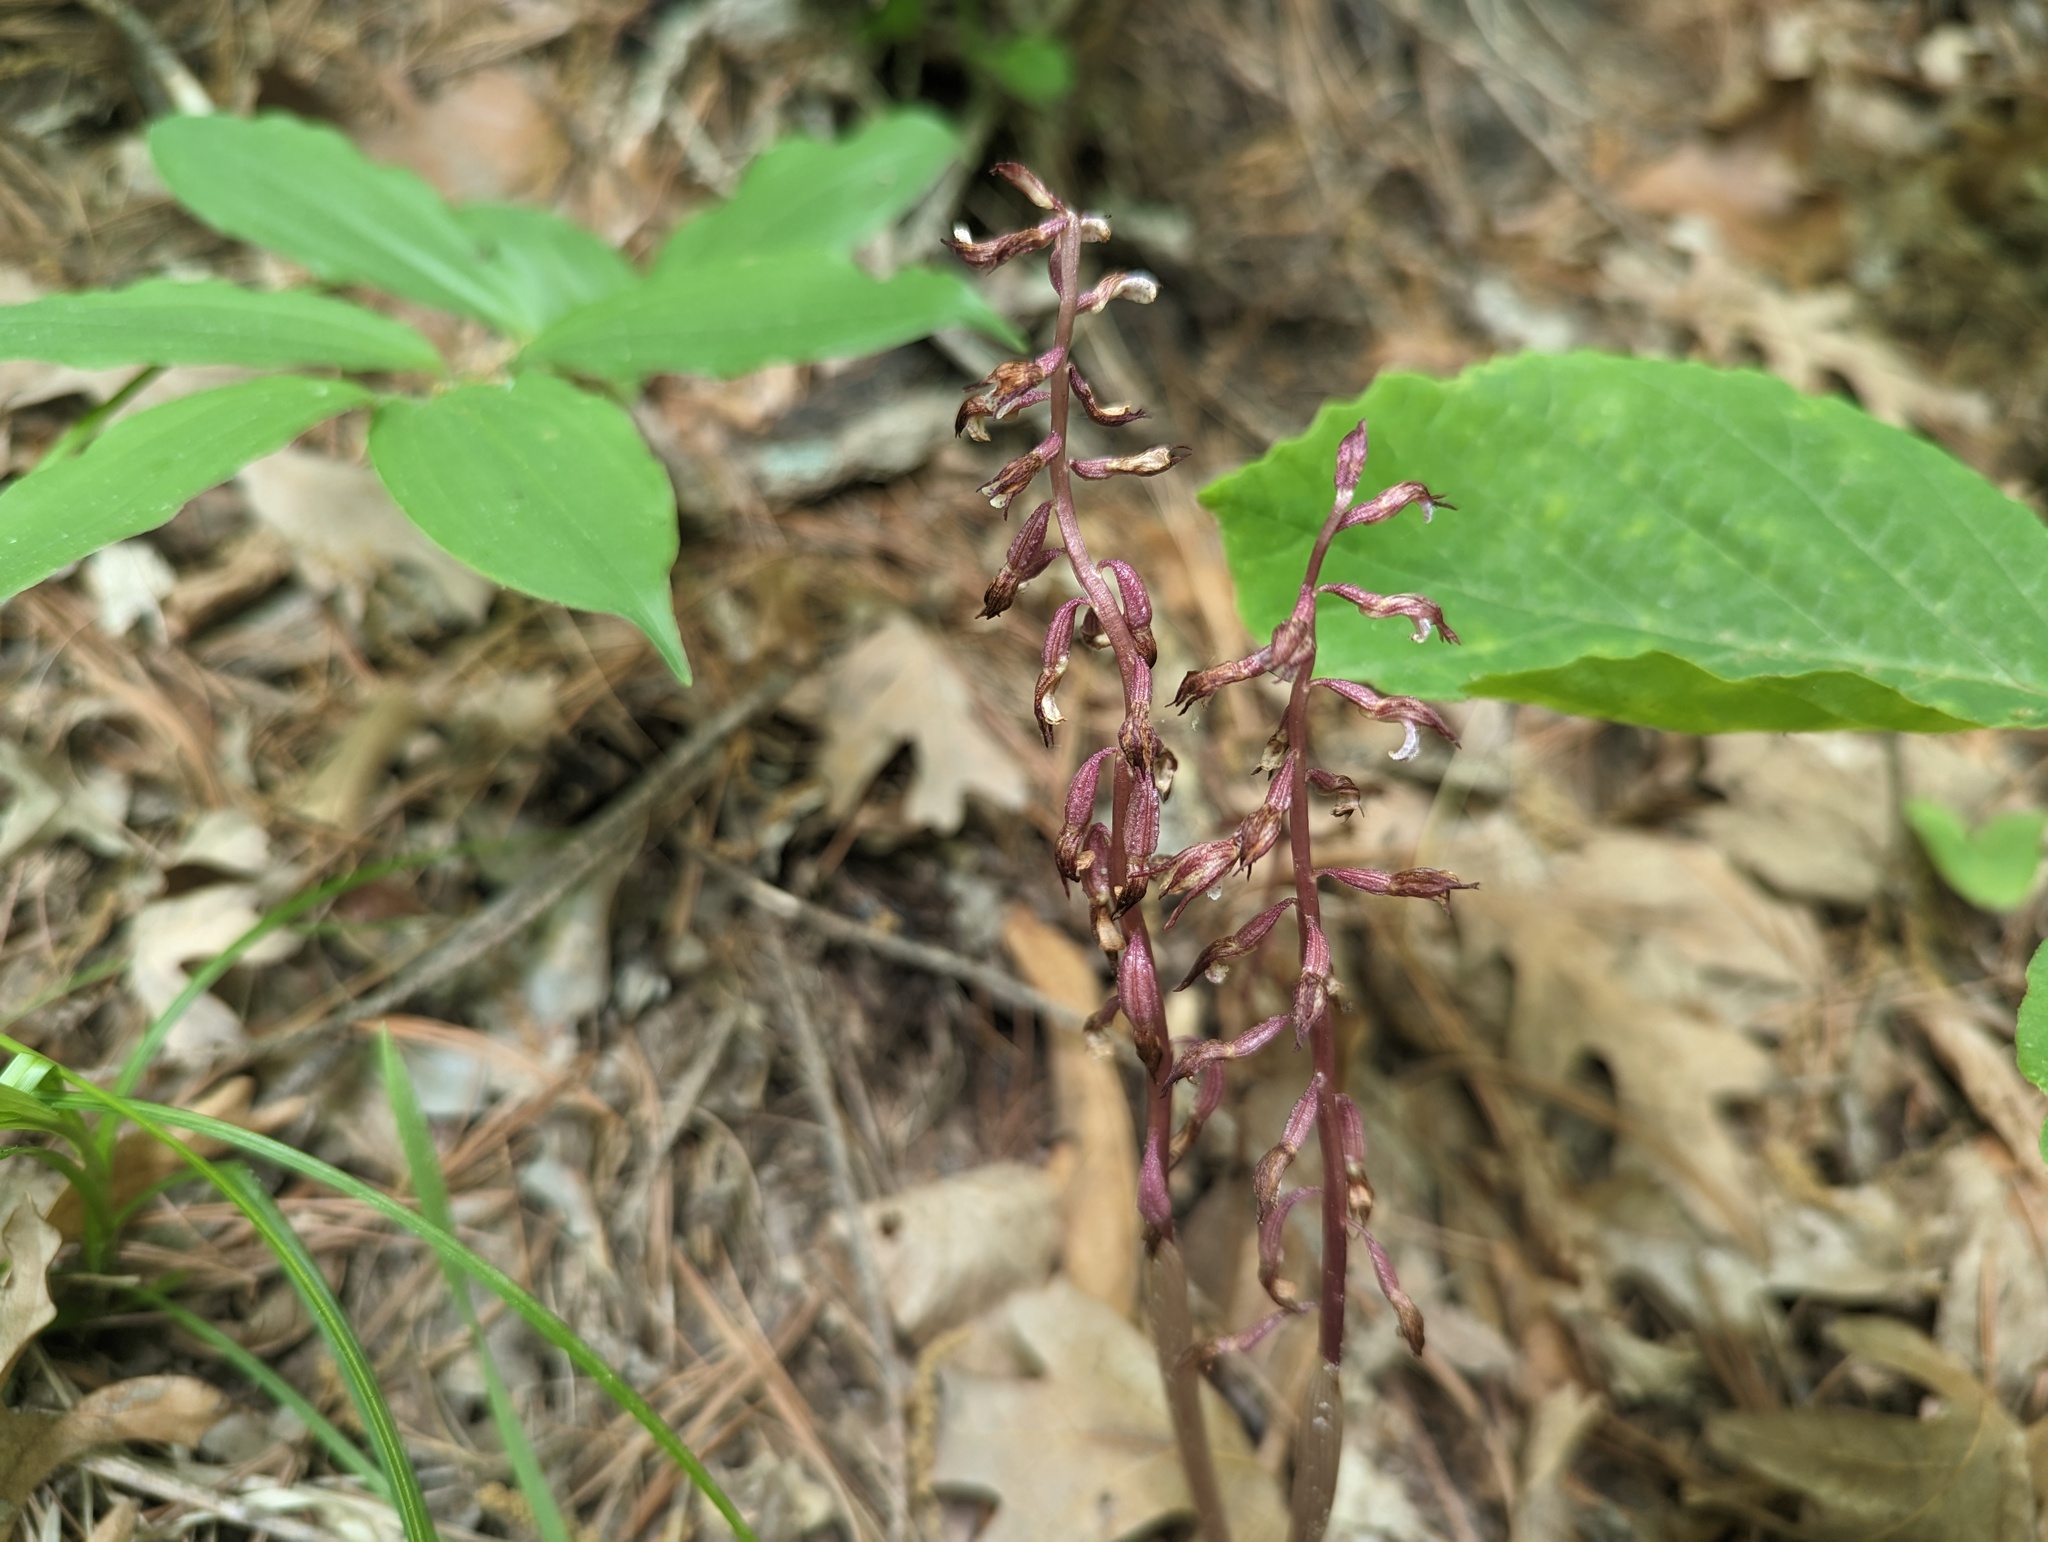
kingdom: Plantae
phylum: Tracheophyta
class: Liliopsida
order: Asparagales
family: Orchidaceae
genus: Corallorhiza
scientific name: Corallorhiza wisteriana
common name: Spring coralroot
